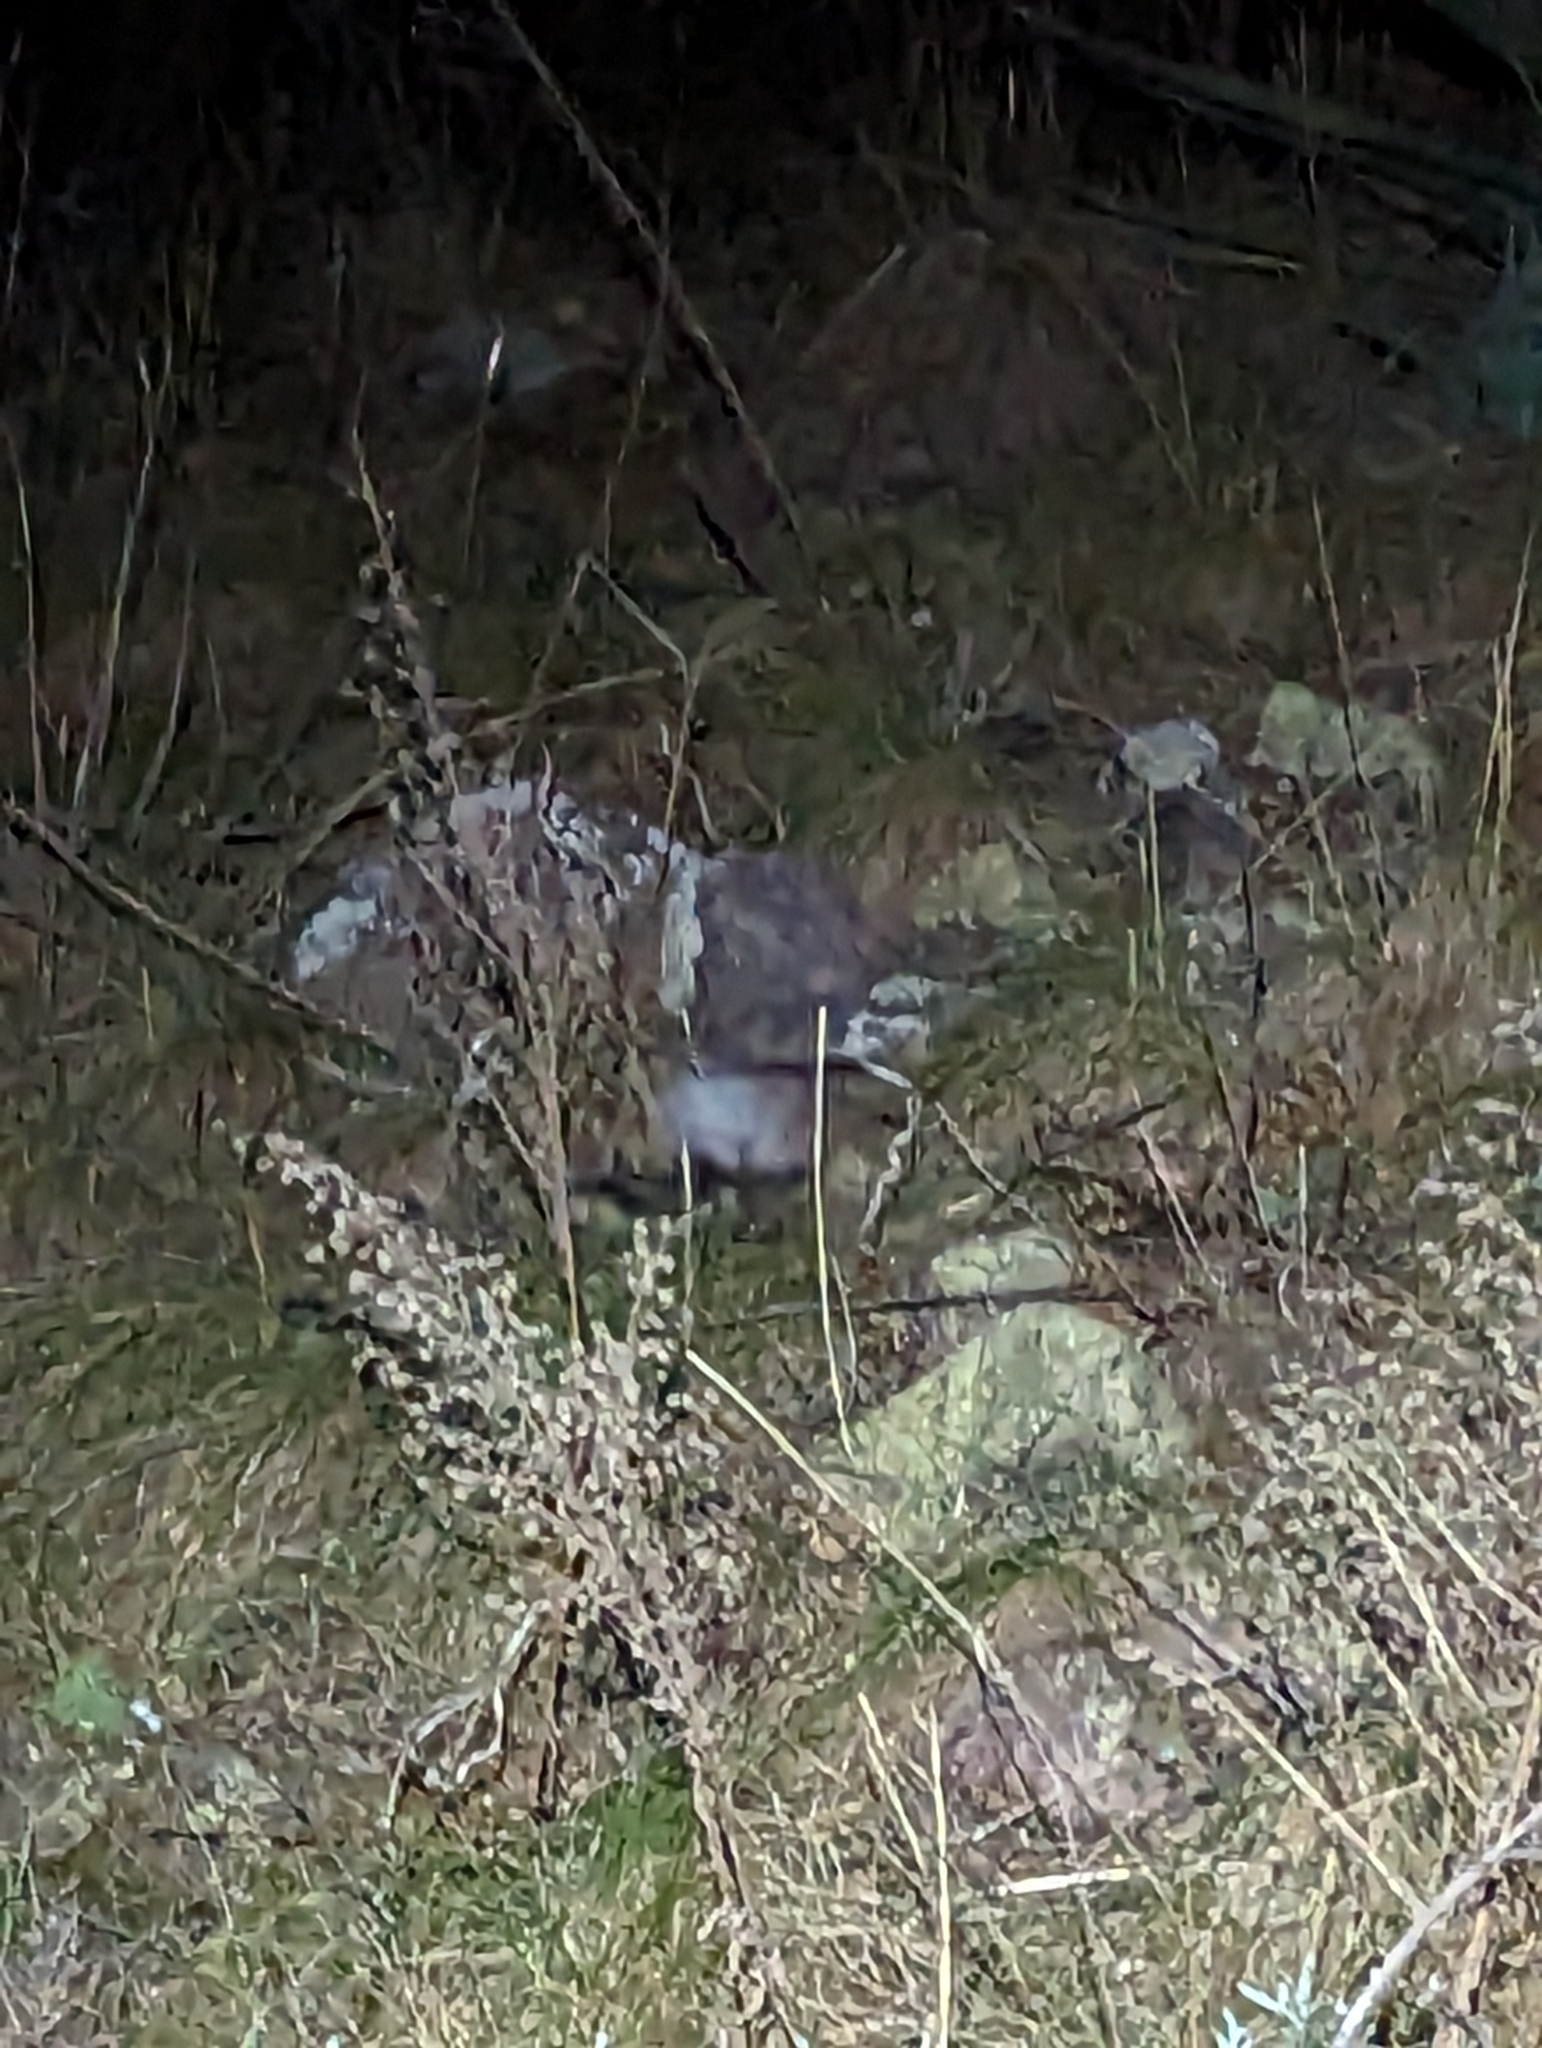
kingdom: Animalia
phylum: Chordata
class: Mammalia
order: Carnivora
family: Mephitidae
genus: Spilogale
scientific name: Spilogale gracilis
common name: Western spotted skunk
